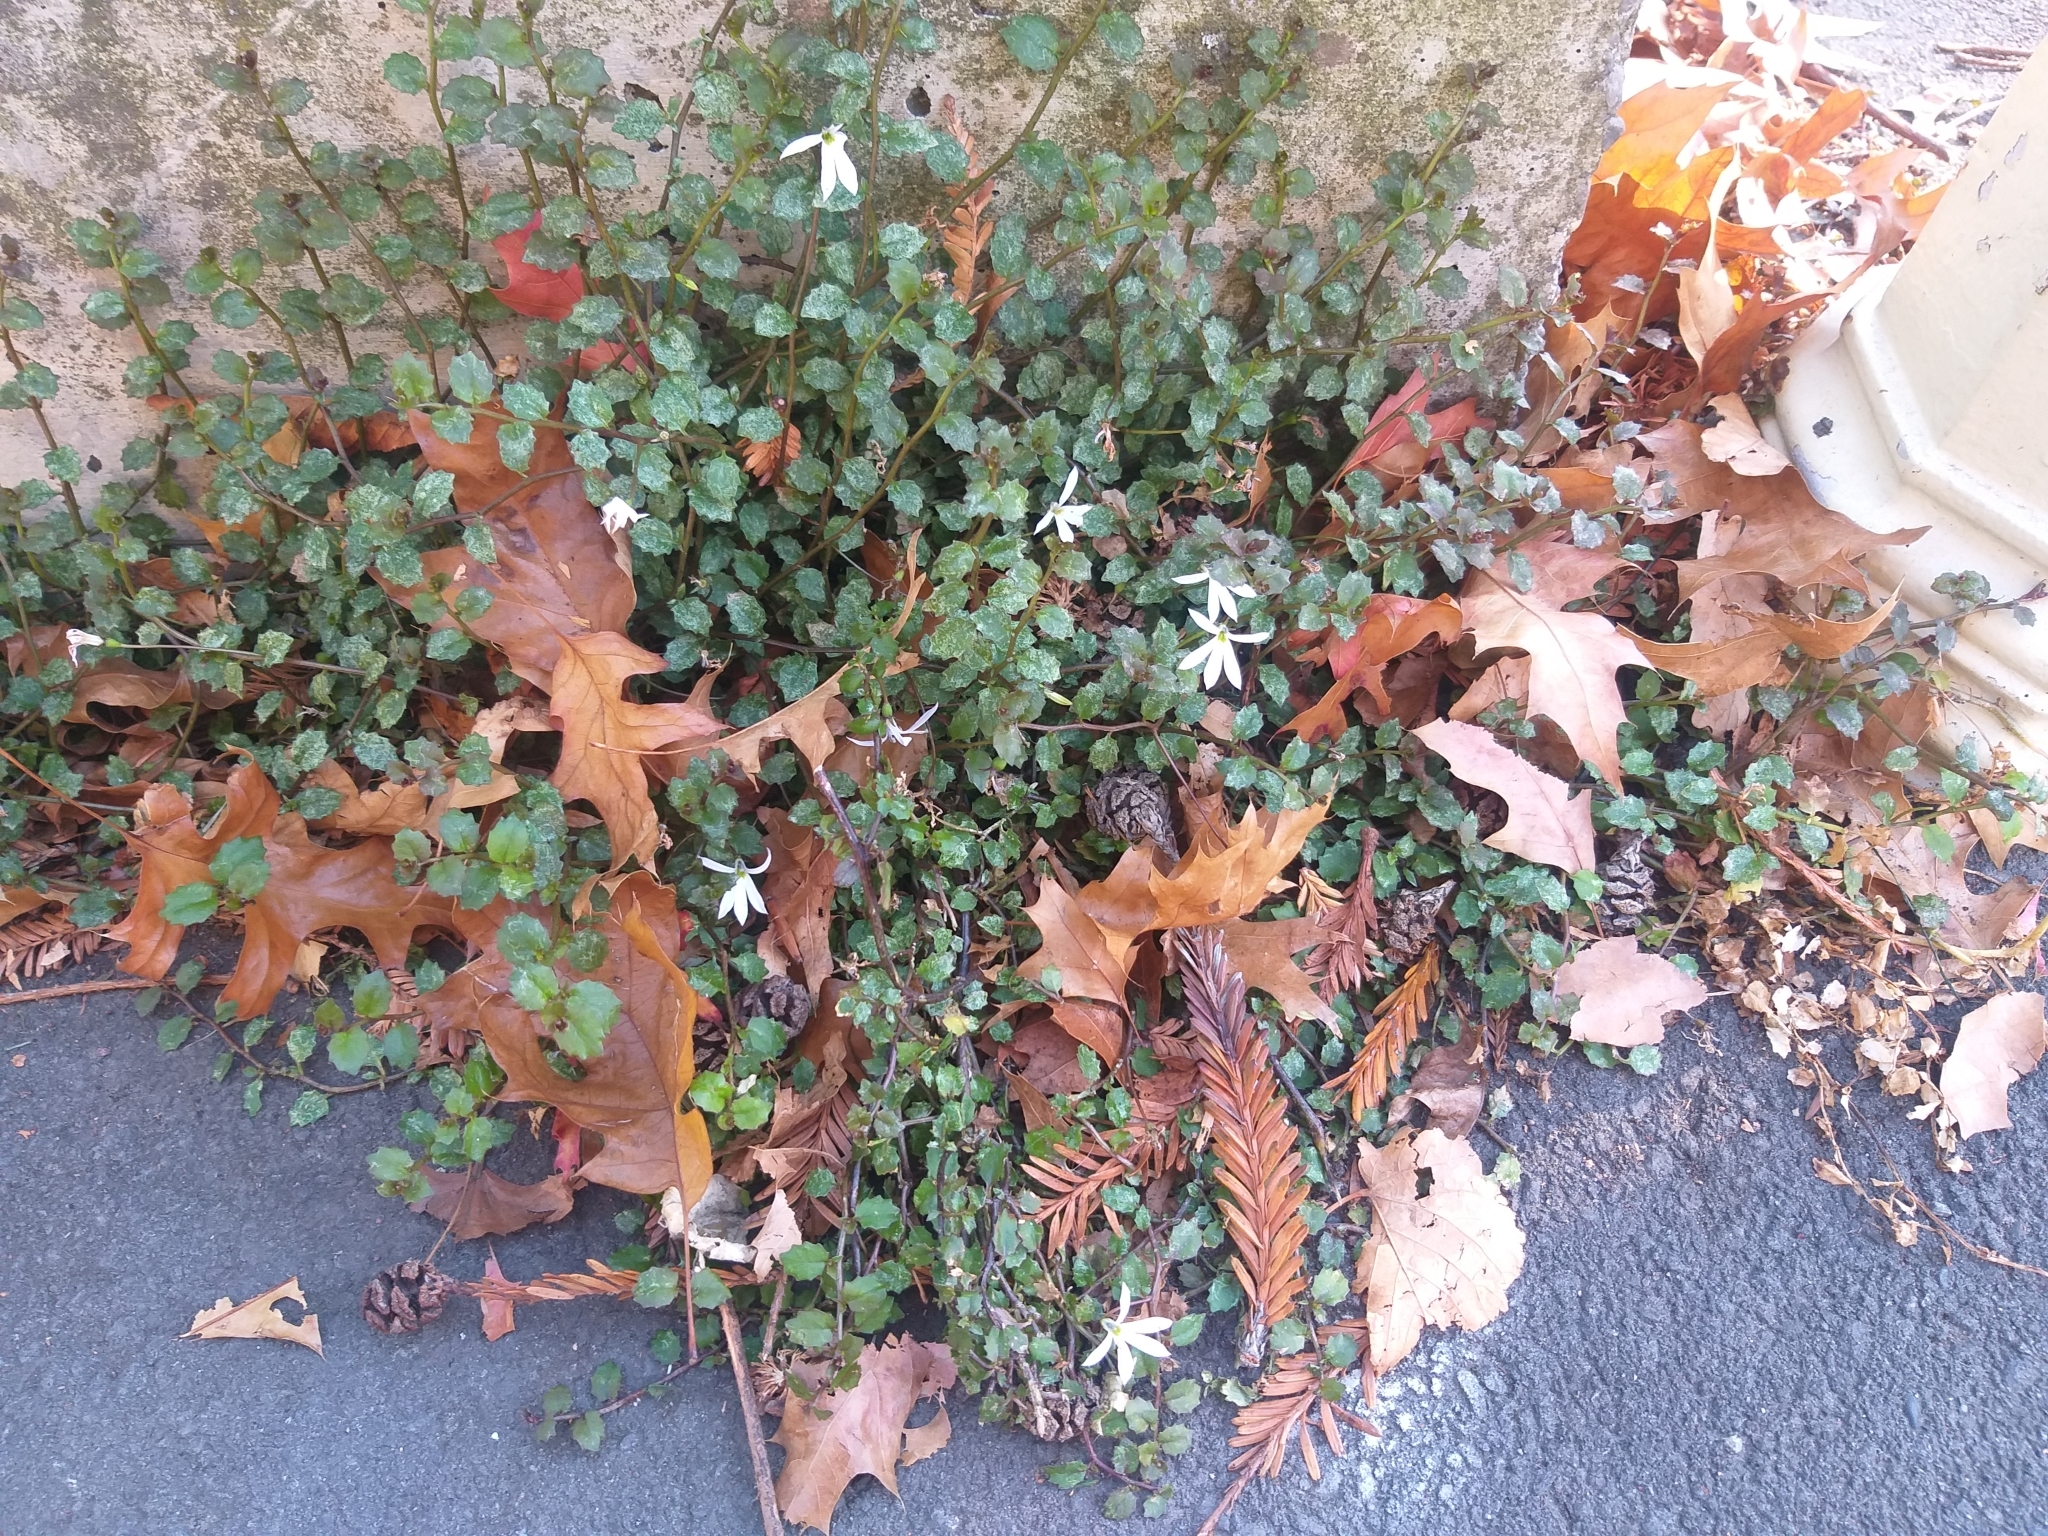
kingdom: Plantae
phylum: Tracheophyta
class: Magnoliopsida
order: Asterales
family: Campanulaceae
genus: Lobelia
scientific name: Lobelia angulata
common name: Lawn lobelia
